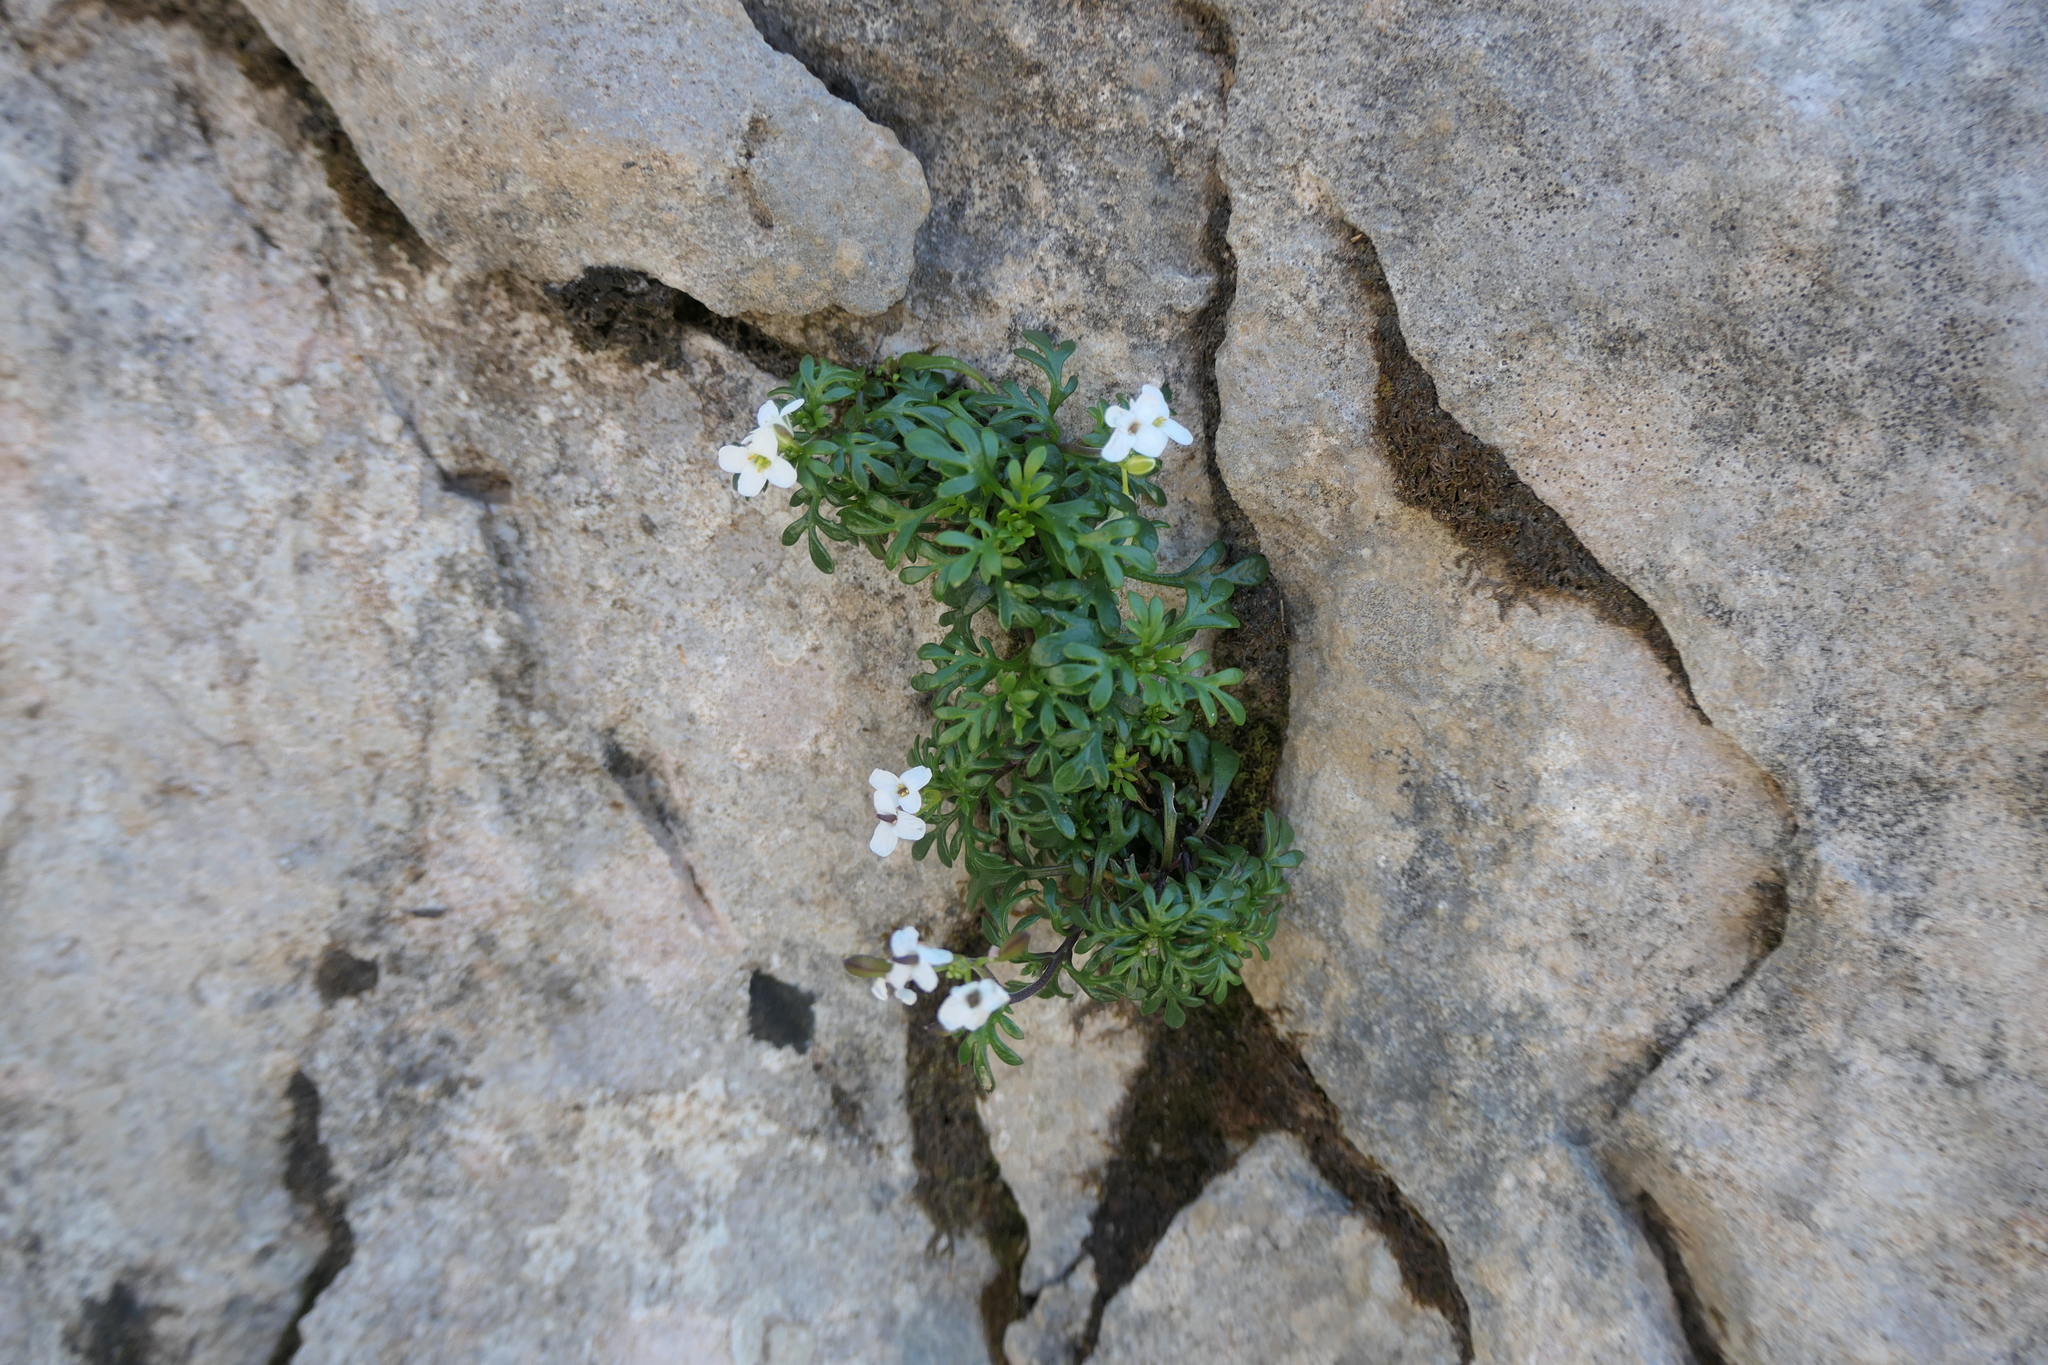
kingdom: Plantae
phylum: Tracheophyta
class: Magnoliopsida
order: Brassicales
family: Brassicaceae
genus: Hornungia
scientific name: Hornungia alpina
